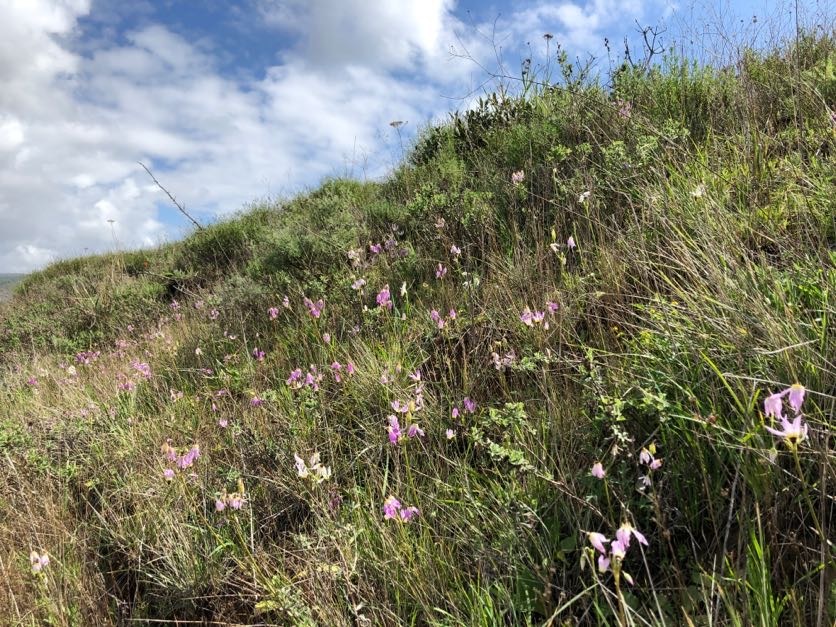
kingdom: Plantae
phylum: Tracheophyta
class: Magnoliopsida
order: Ericales
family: Primulaceae
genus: Dodecatheon
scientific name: Dodecatheon clevelandii
